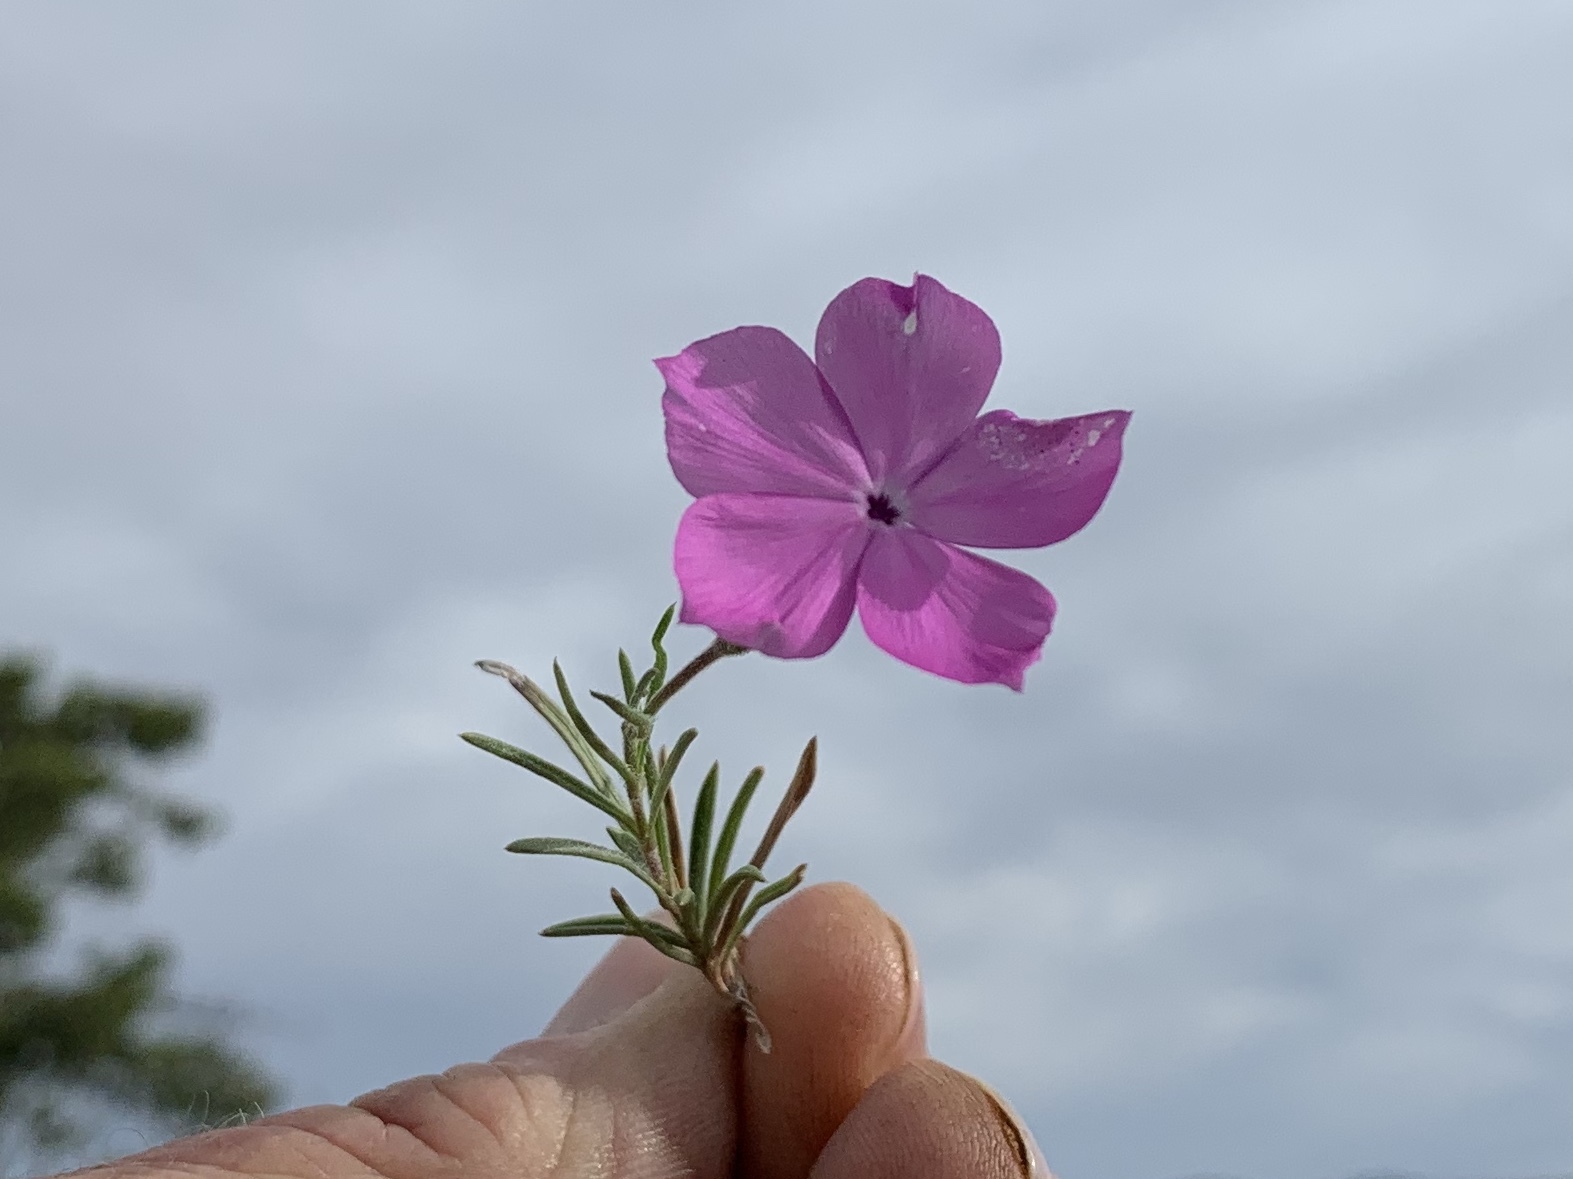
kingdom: Plantae
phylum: Tracheophyta
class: Magnoliopsida
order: Ericales
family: Polemoniaceae
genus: Phlox
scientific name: Phlox nana
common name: Santa fe phlox
